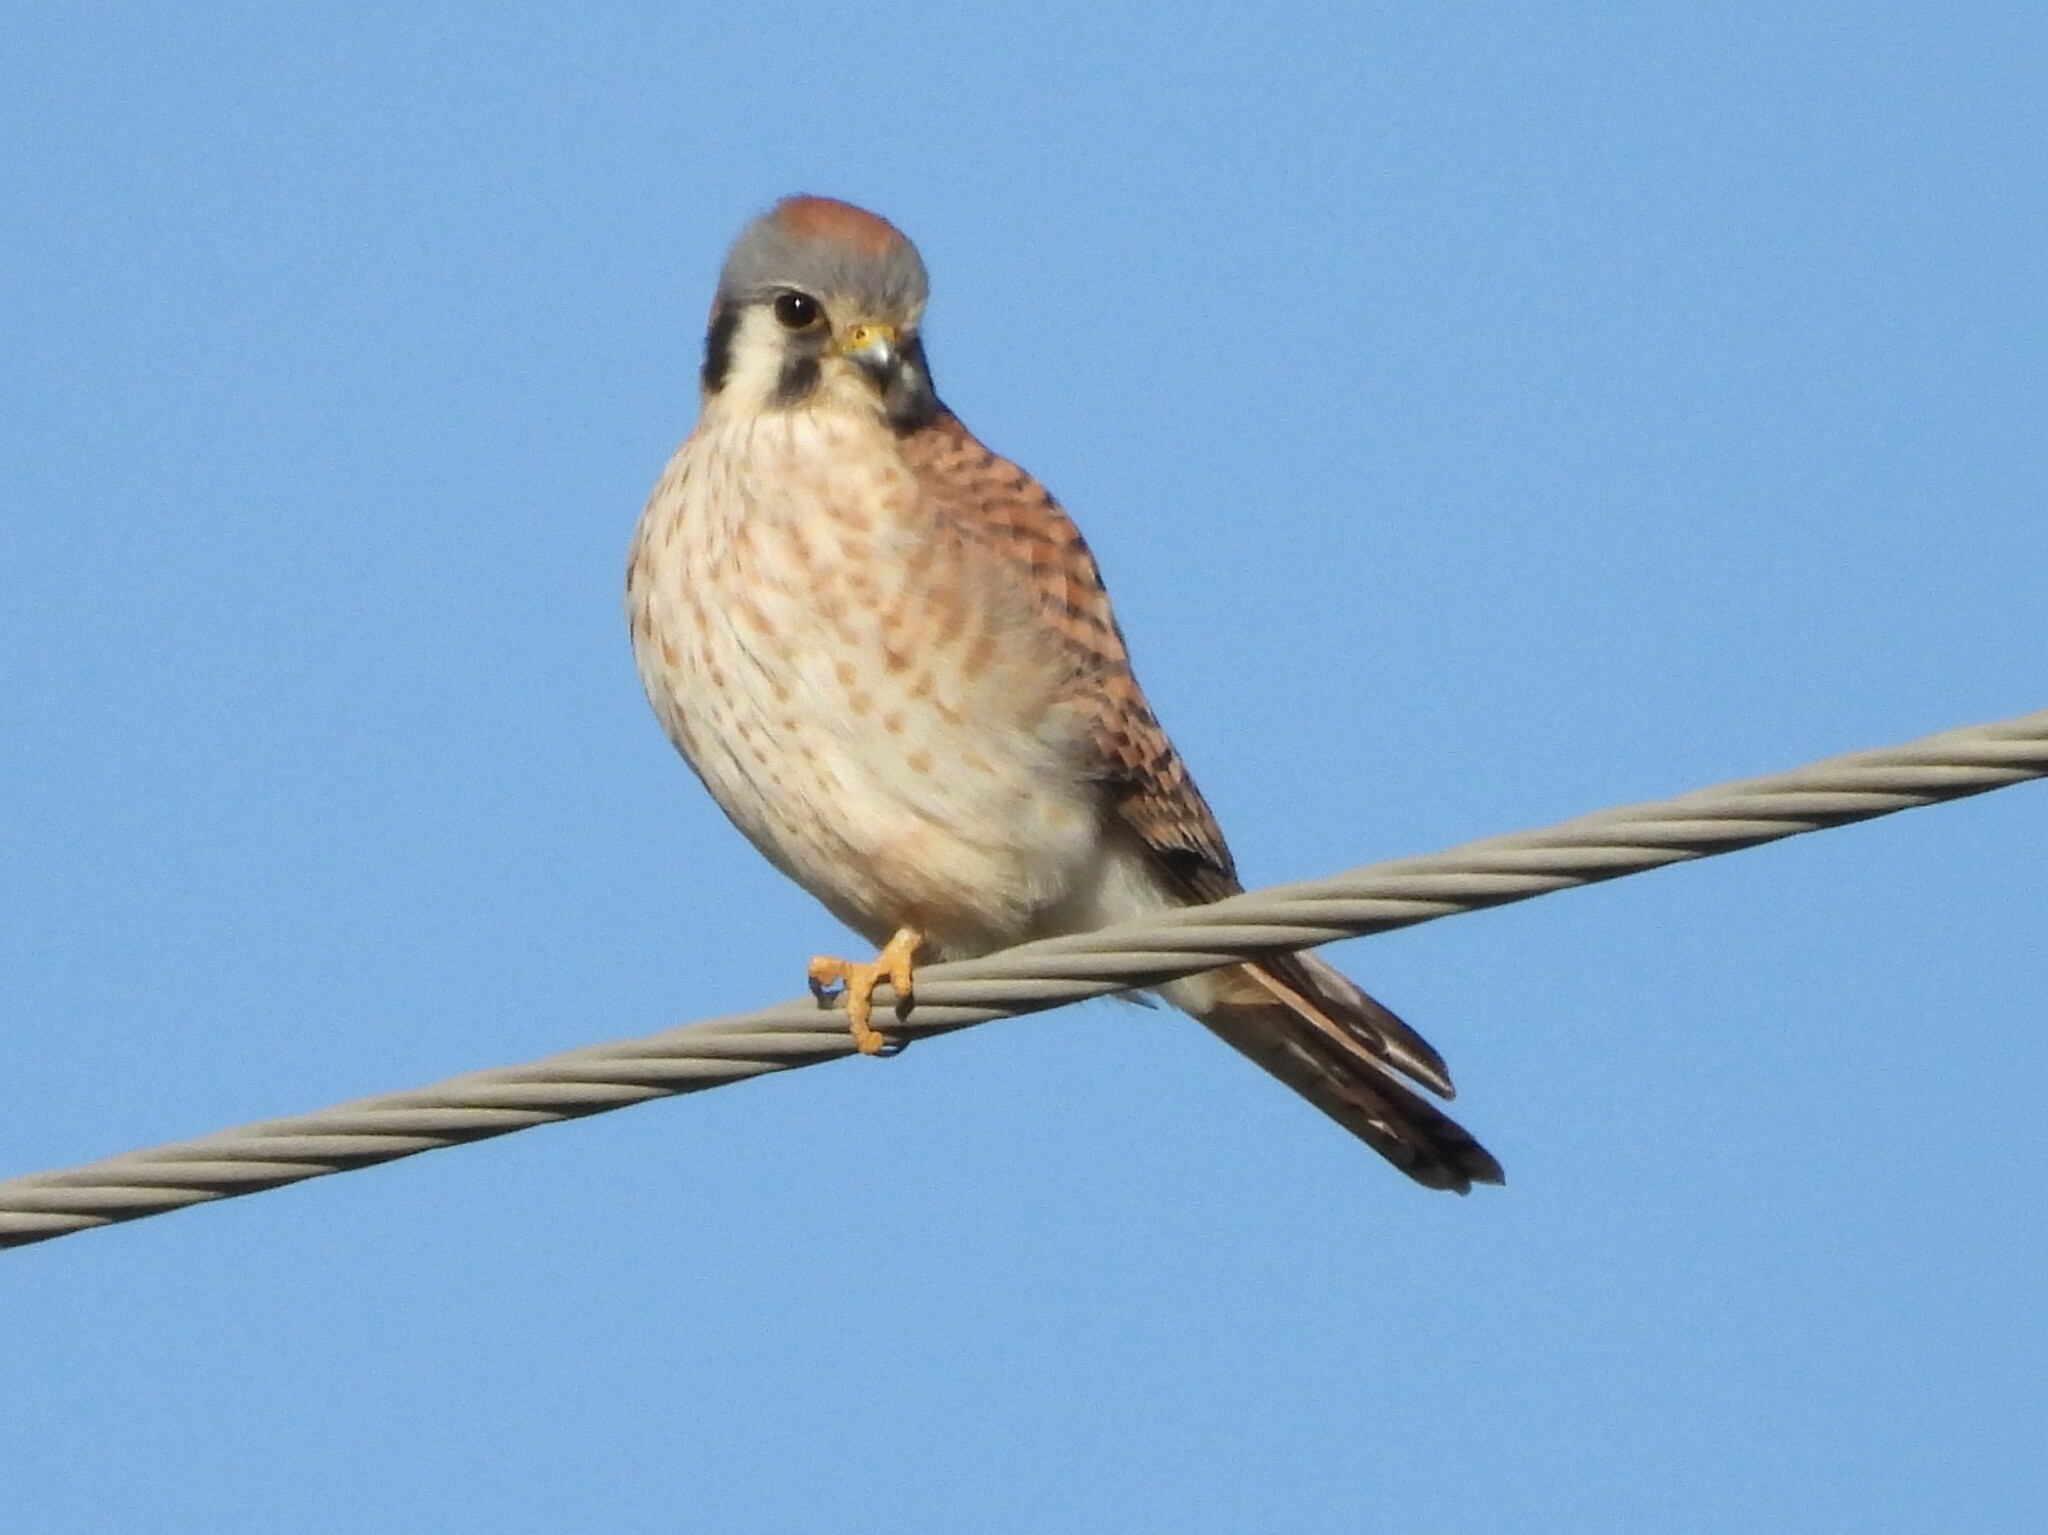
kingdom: Animalia
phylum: Chordata
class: Aves
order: Falconiformes
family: Falconidae
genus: Falco
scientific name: Falco sparverius
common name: American kestrel
